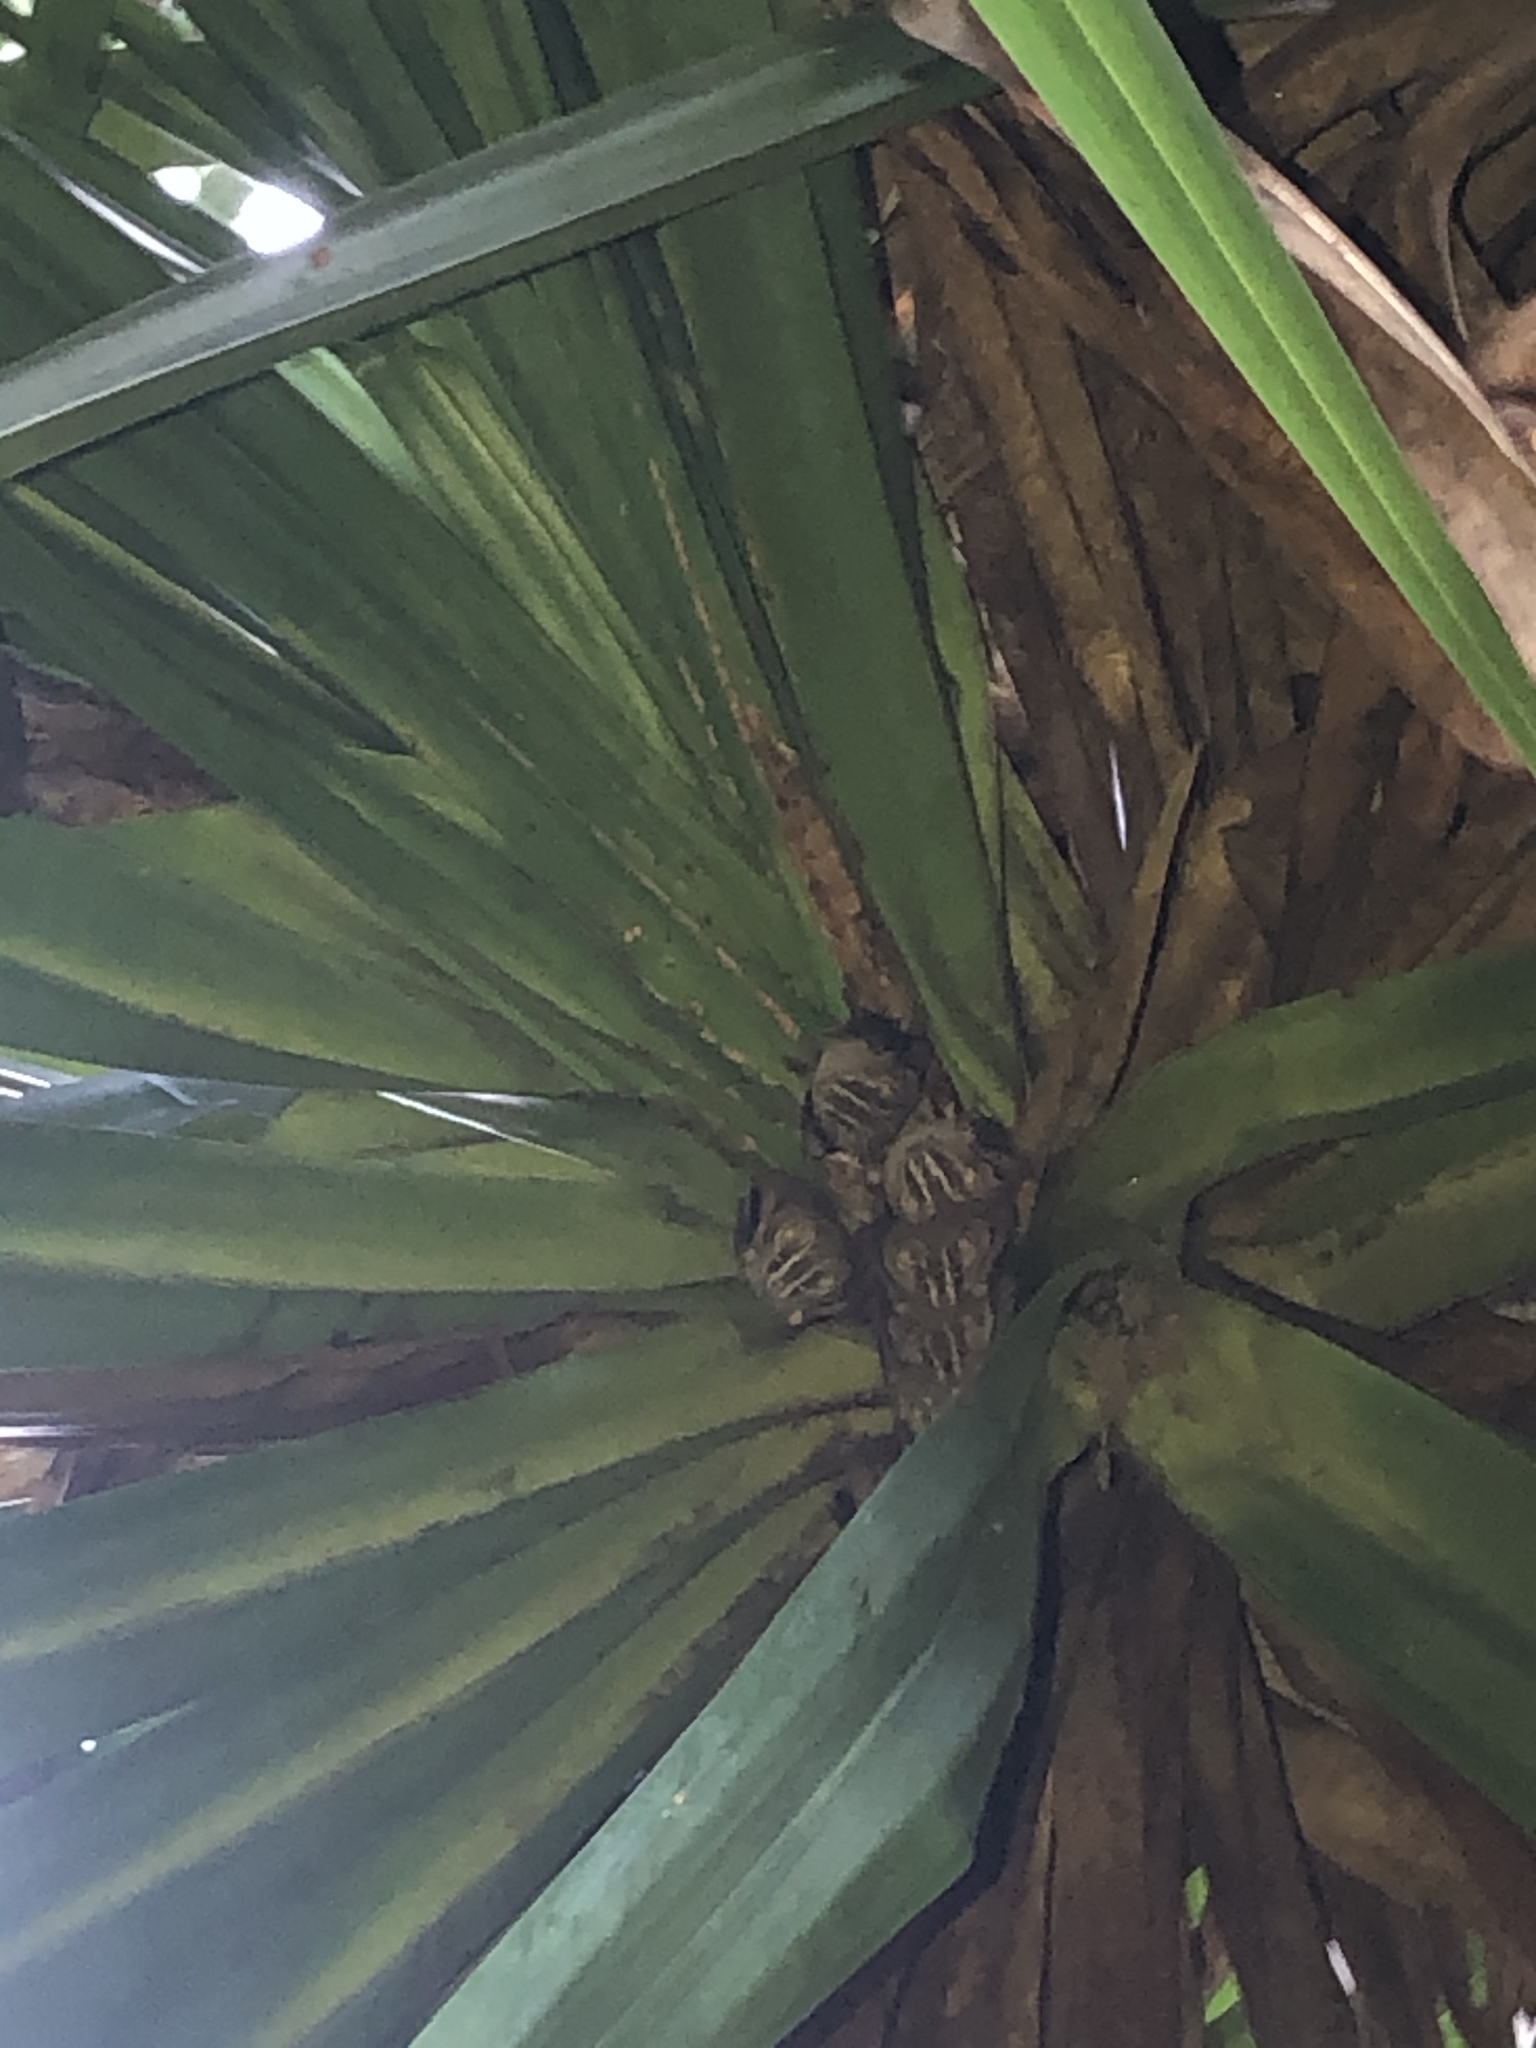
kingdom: Animalia
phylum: Chordata
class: Mammalia
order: Chiroptera
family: Phyllostomidae
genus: Uroderma
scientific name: Uroderma bilobatum
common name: Common tent-making bat
